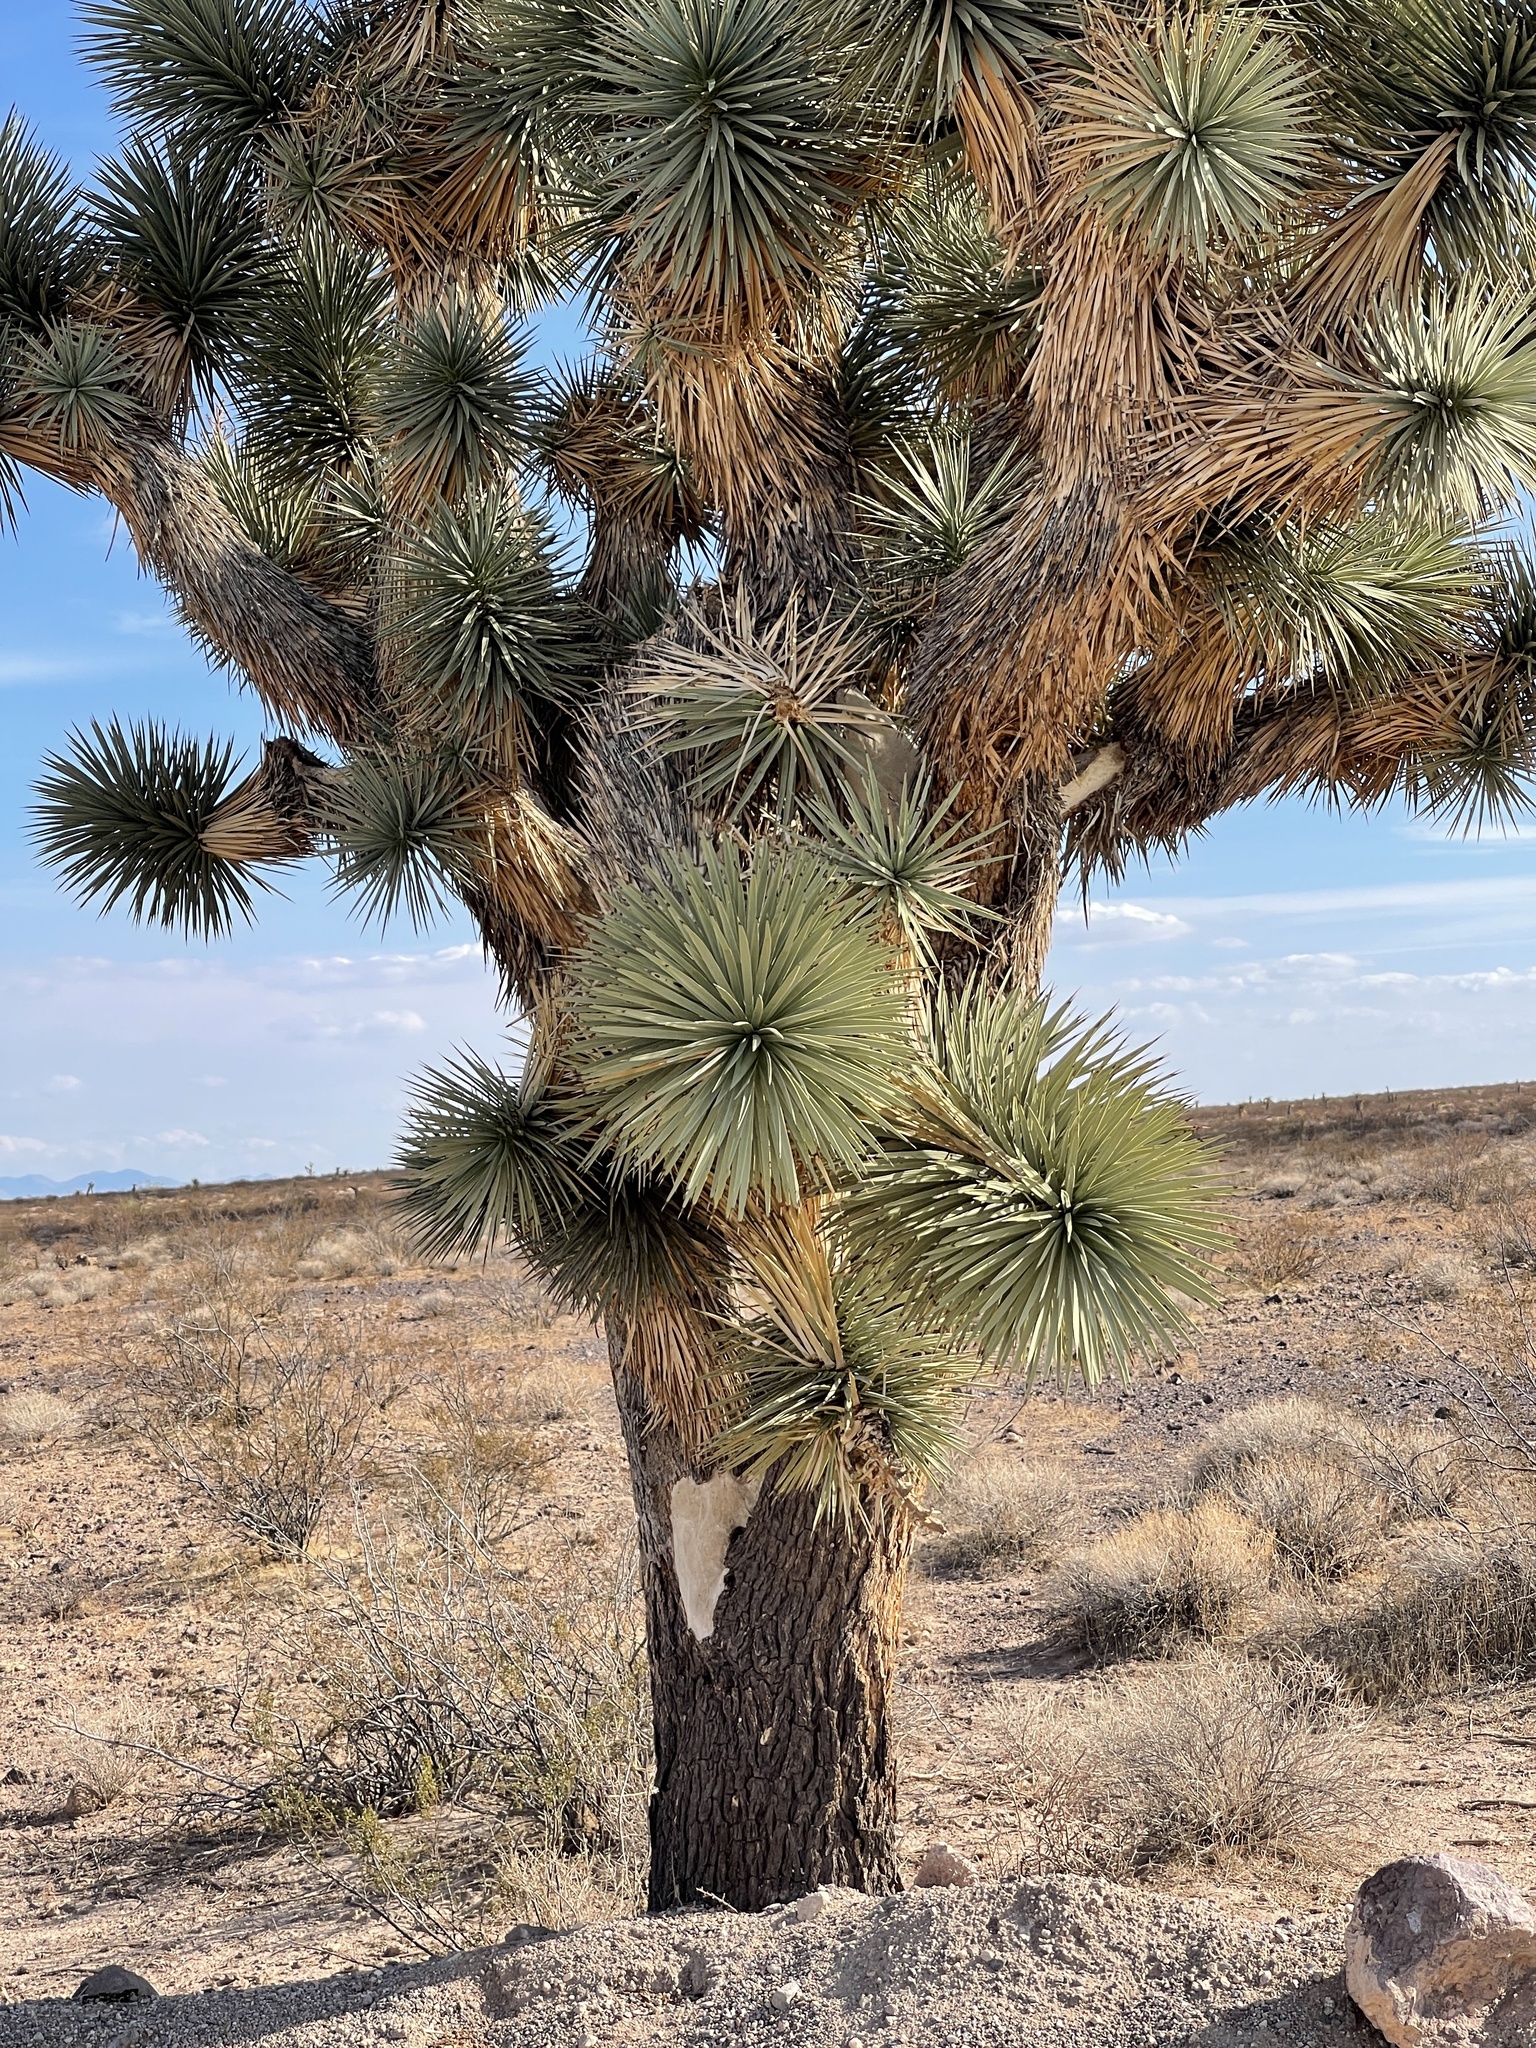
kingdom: Plantae
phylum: Tracheophyta
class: Liliopsida
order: Asparagales
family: Asparagaceae
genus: Yucca
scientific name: Yucca brevifolia
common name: Joshua tree
